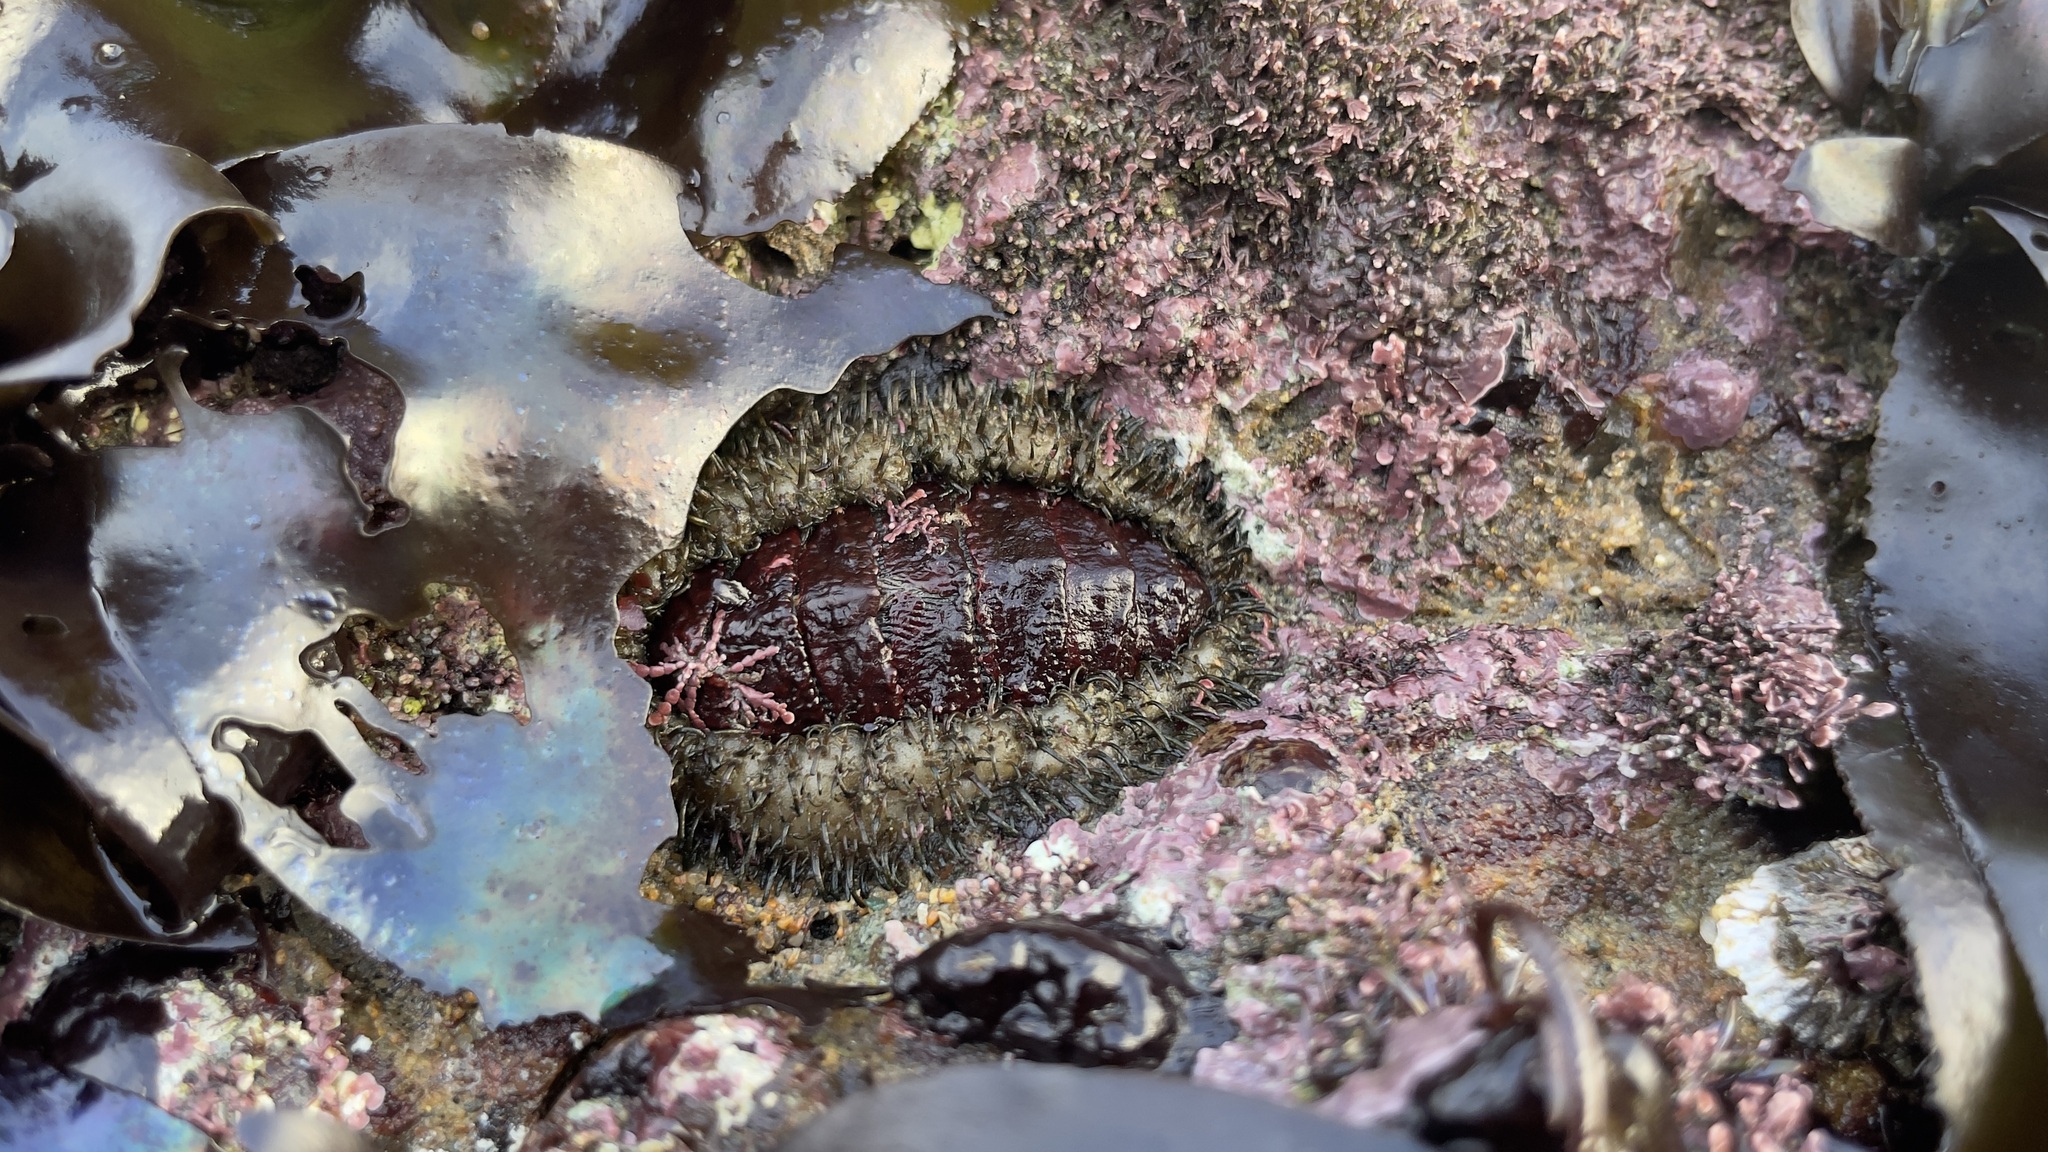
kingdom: Animalia
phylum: Mollusca
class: Polyplacophora
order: Chitonida
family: Mopaliidae
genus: Mopalia
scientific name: Mopalia muscosa
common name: Mossy chiton
